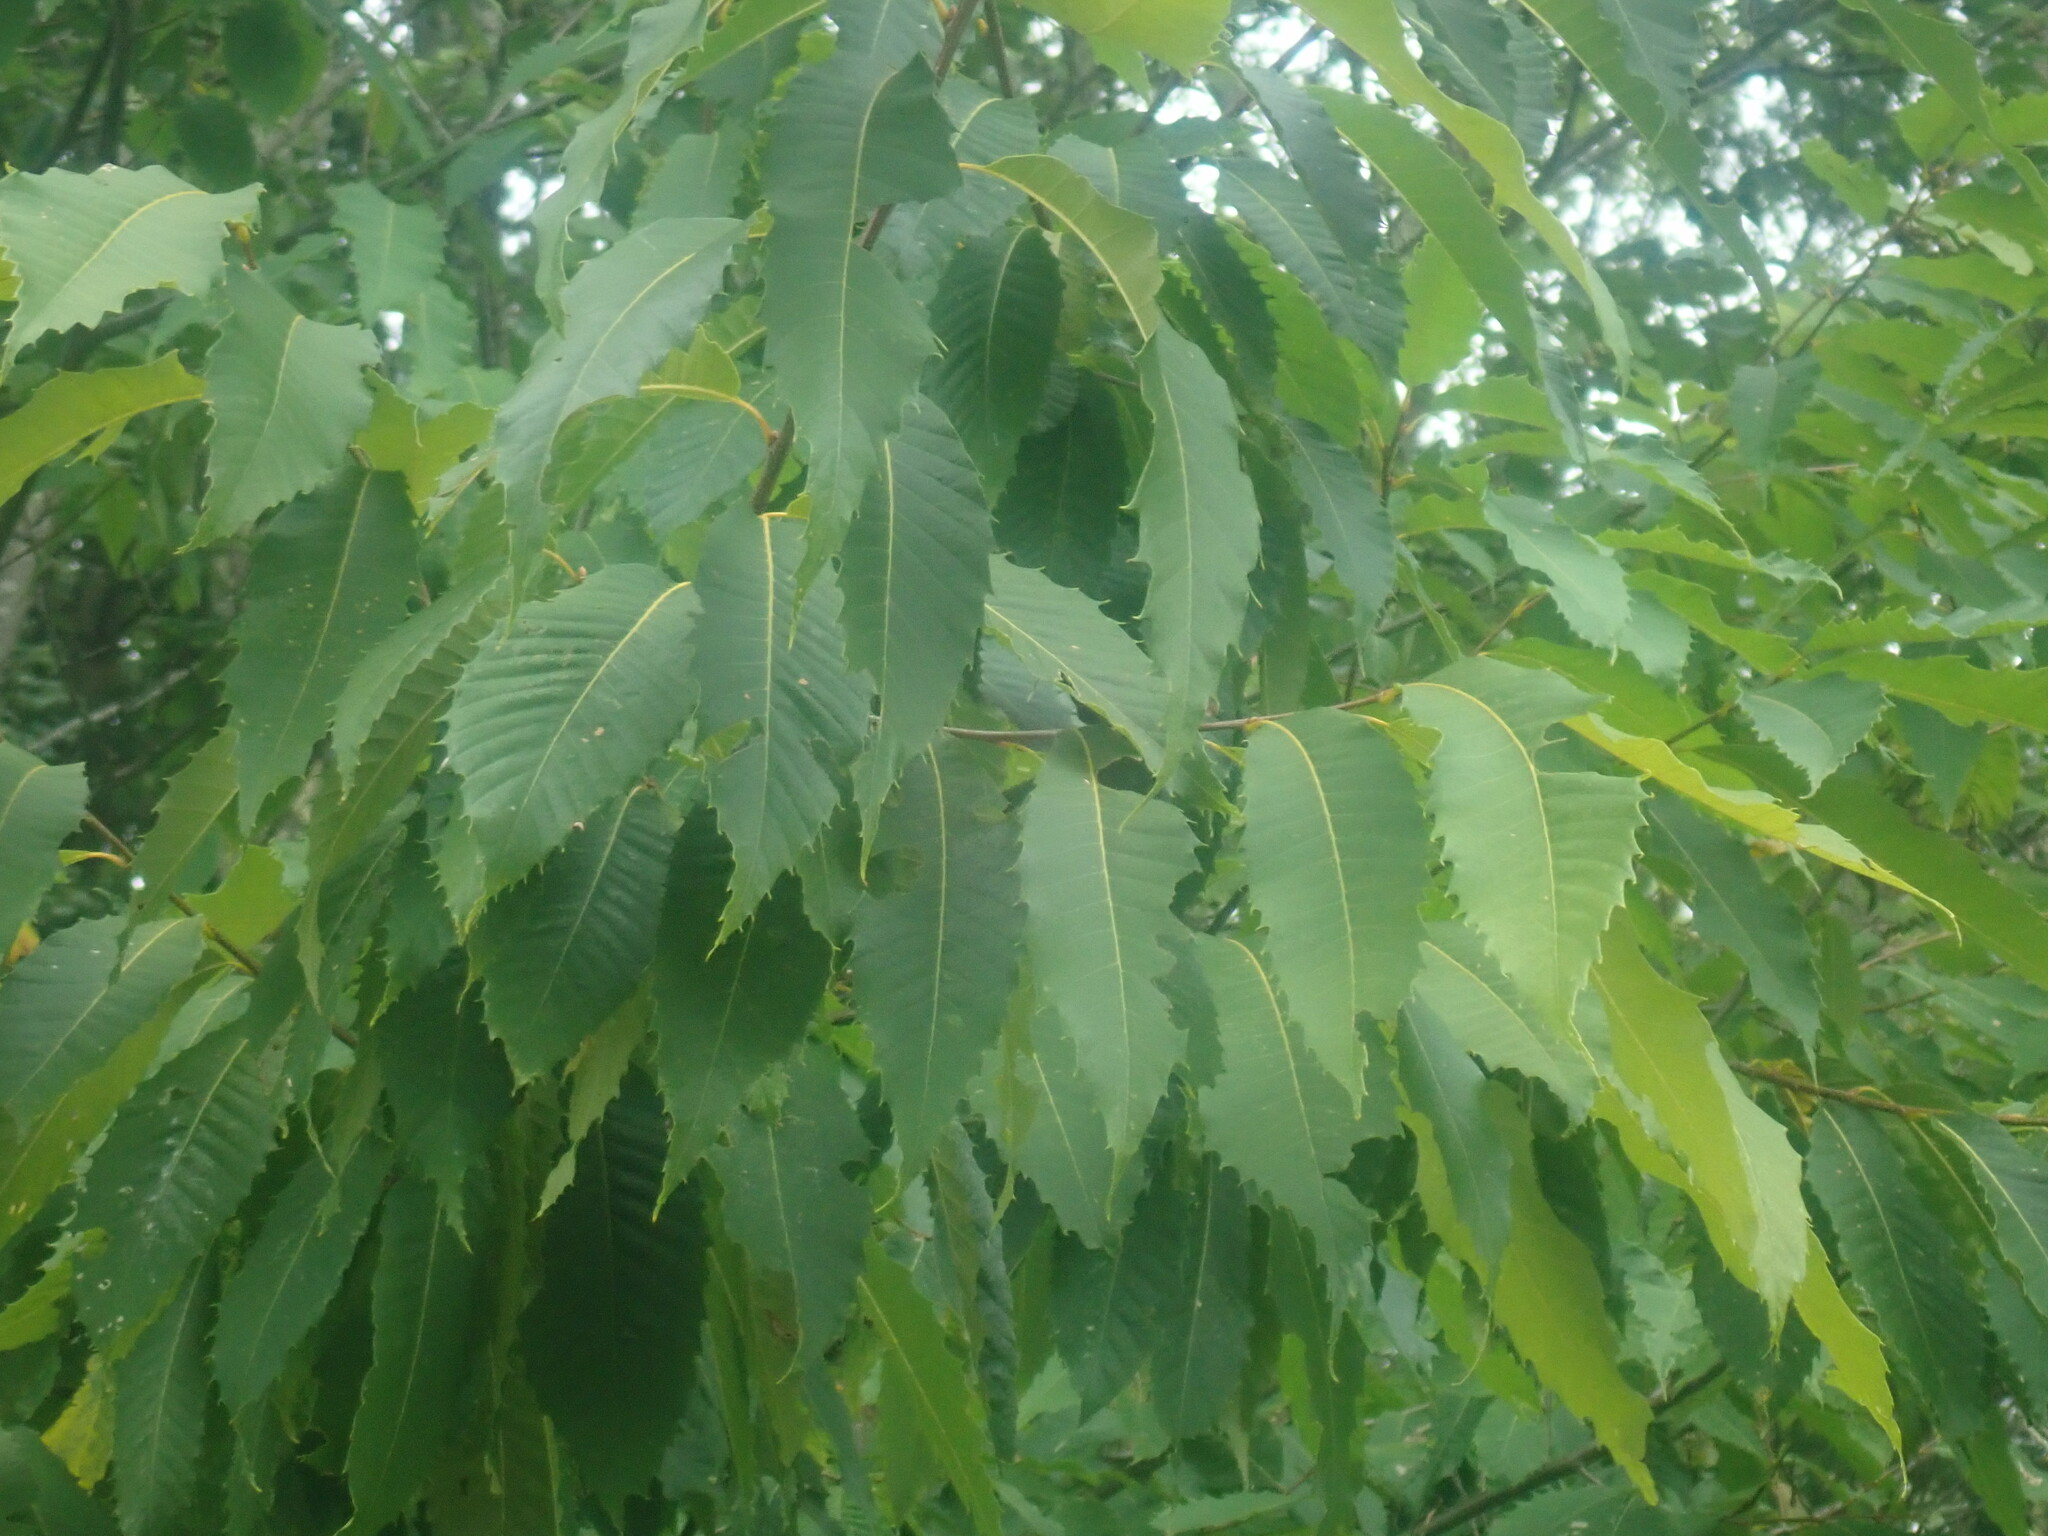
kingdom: Plantae
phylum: Tracheophyta
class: Magnoliopsida
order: Fagales
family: Fagaceae
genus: Castanea
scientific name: Castanea dentata
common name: American chestnut
